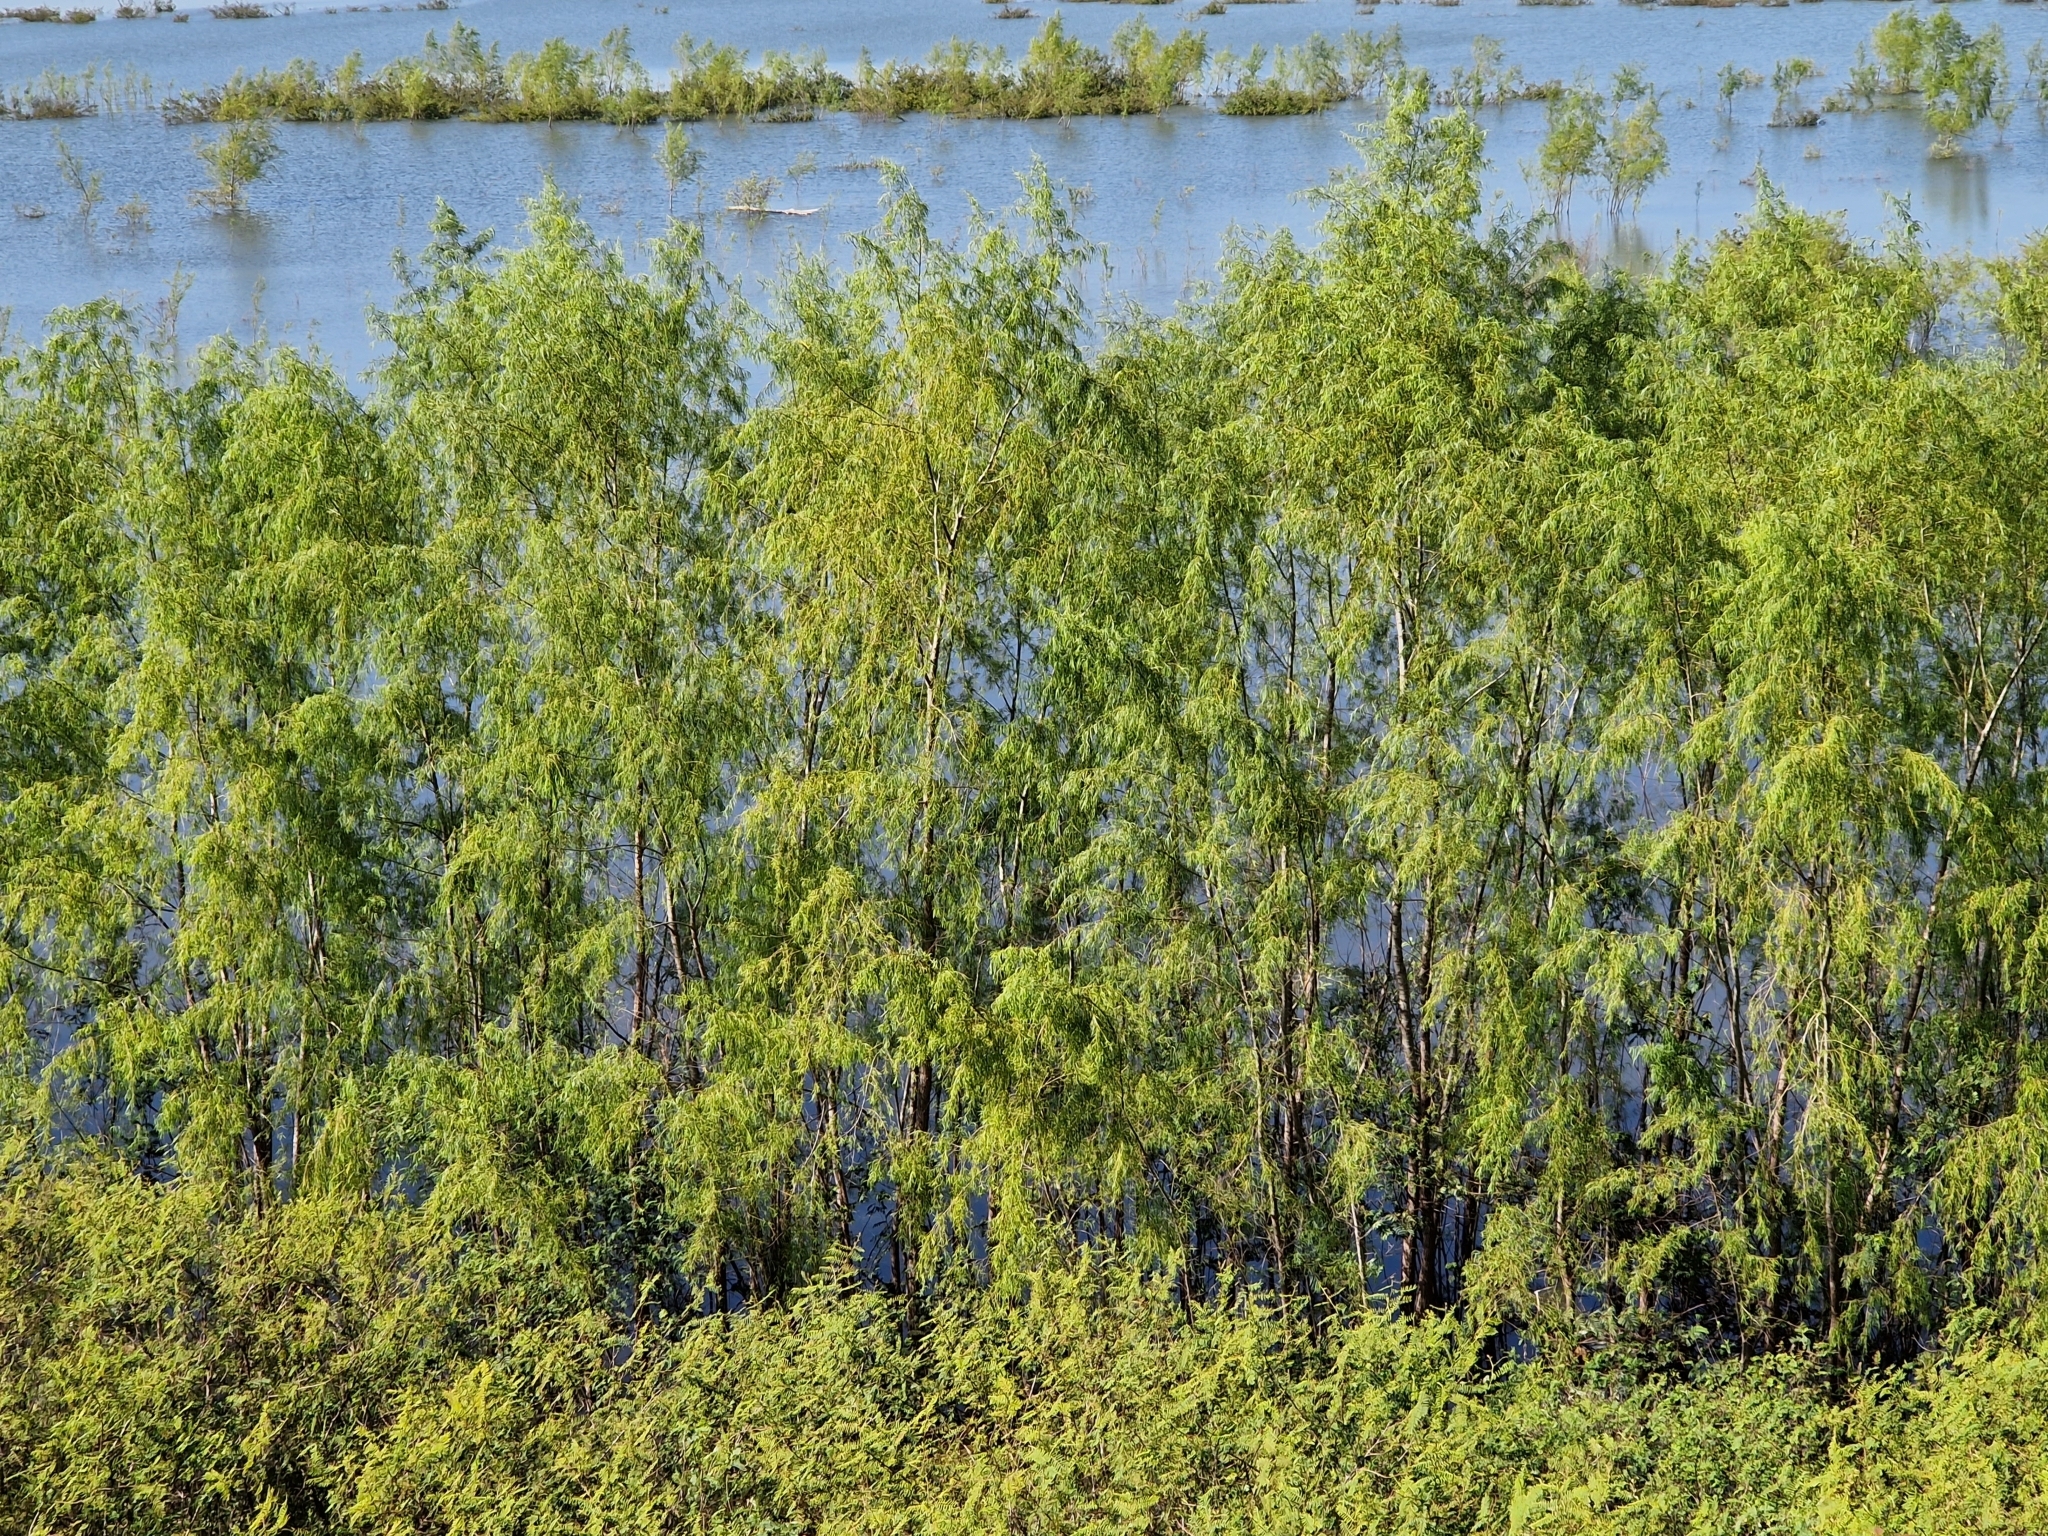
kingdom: Plantae
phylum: Tracheophyta
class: Magnoliopsida
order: Malpighiales
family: Salicaceae
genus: Salix
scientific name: Salix humboldtiana
